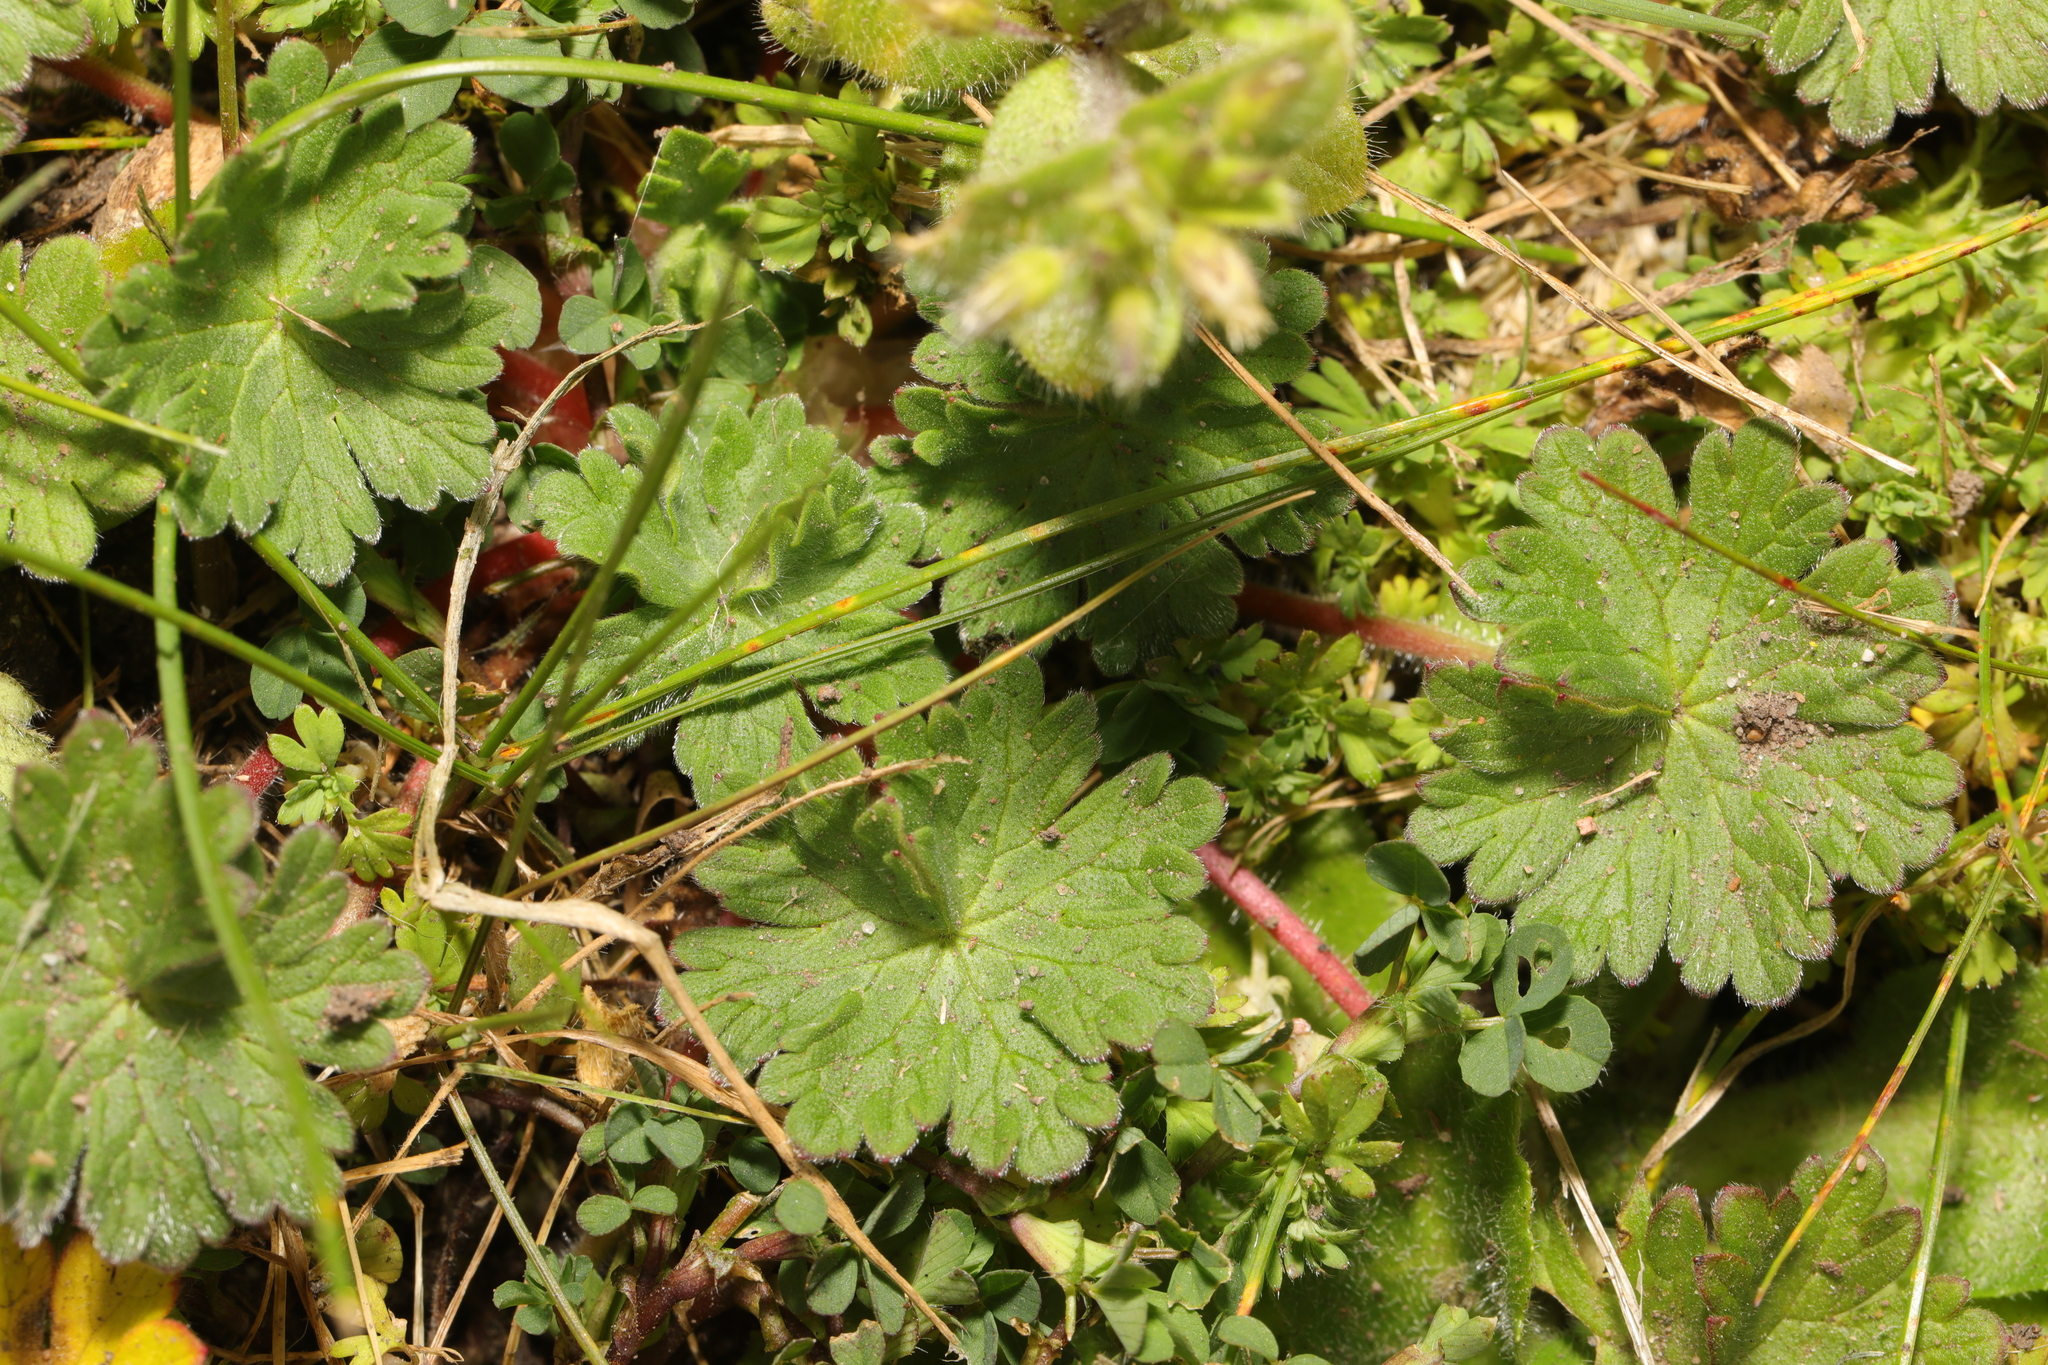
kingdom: Plantae
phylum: Tracheophyta
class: Magnoliopsida
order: Geraniales
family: Geraniaceae
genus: Geranium
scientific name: Geranium molle
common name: Dove's-foot crane's-bill
